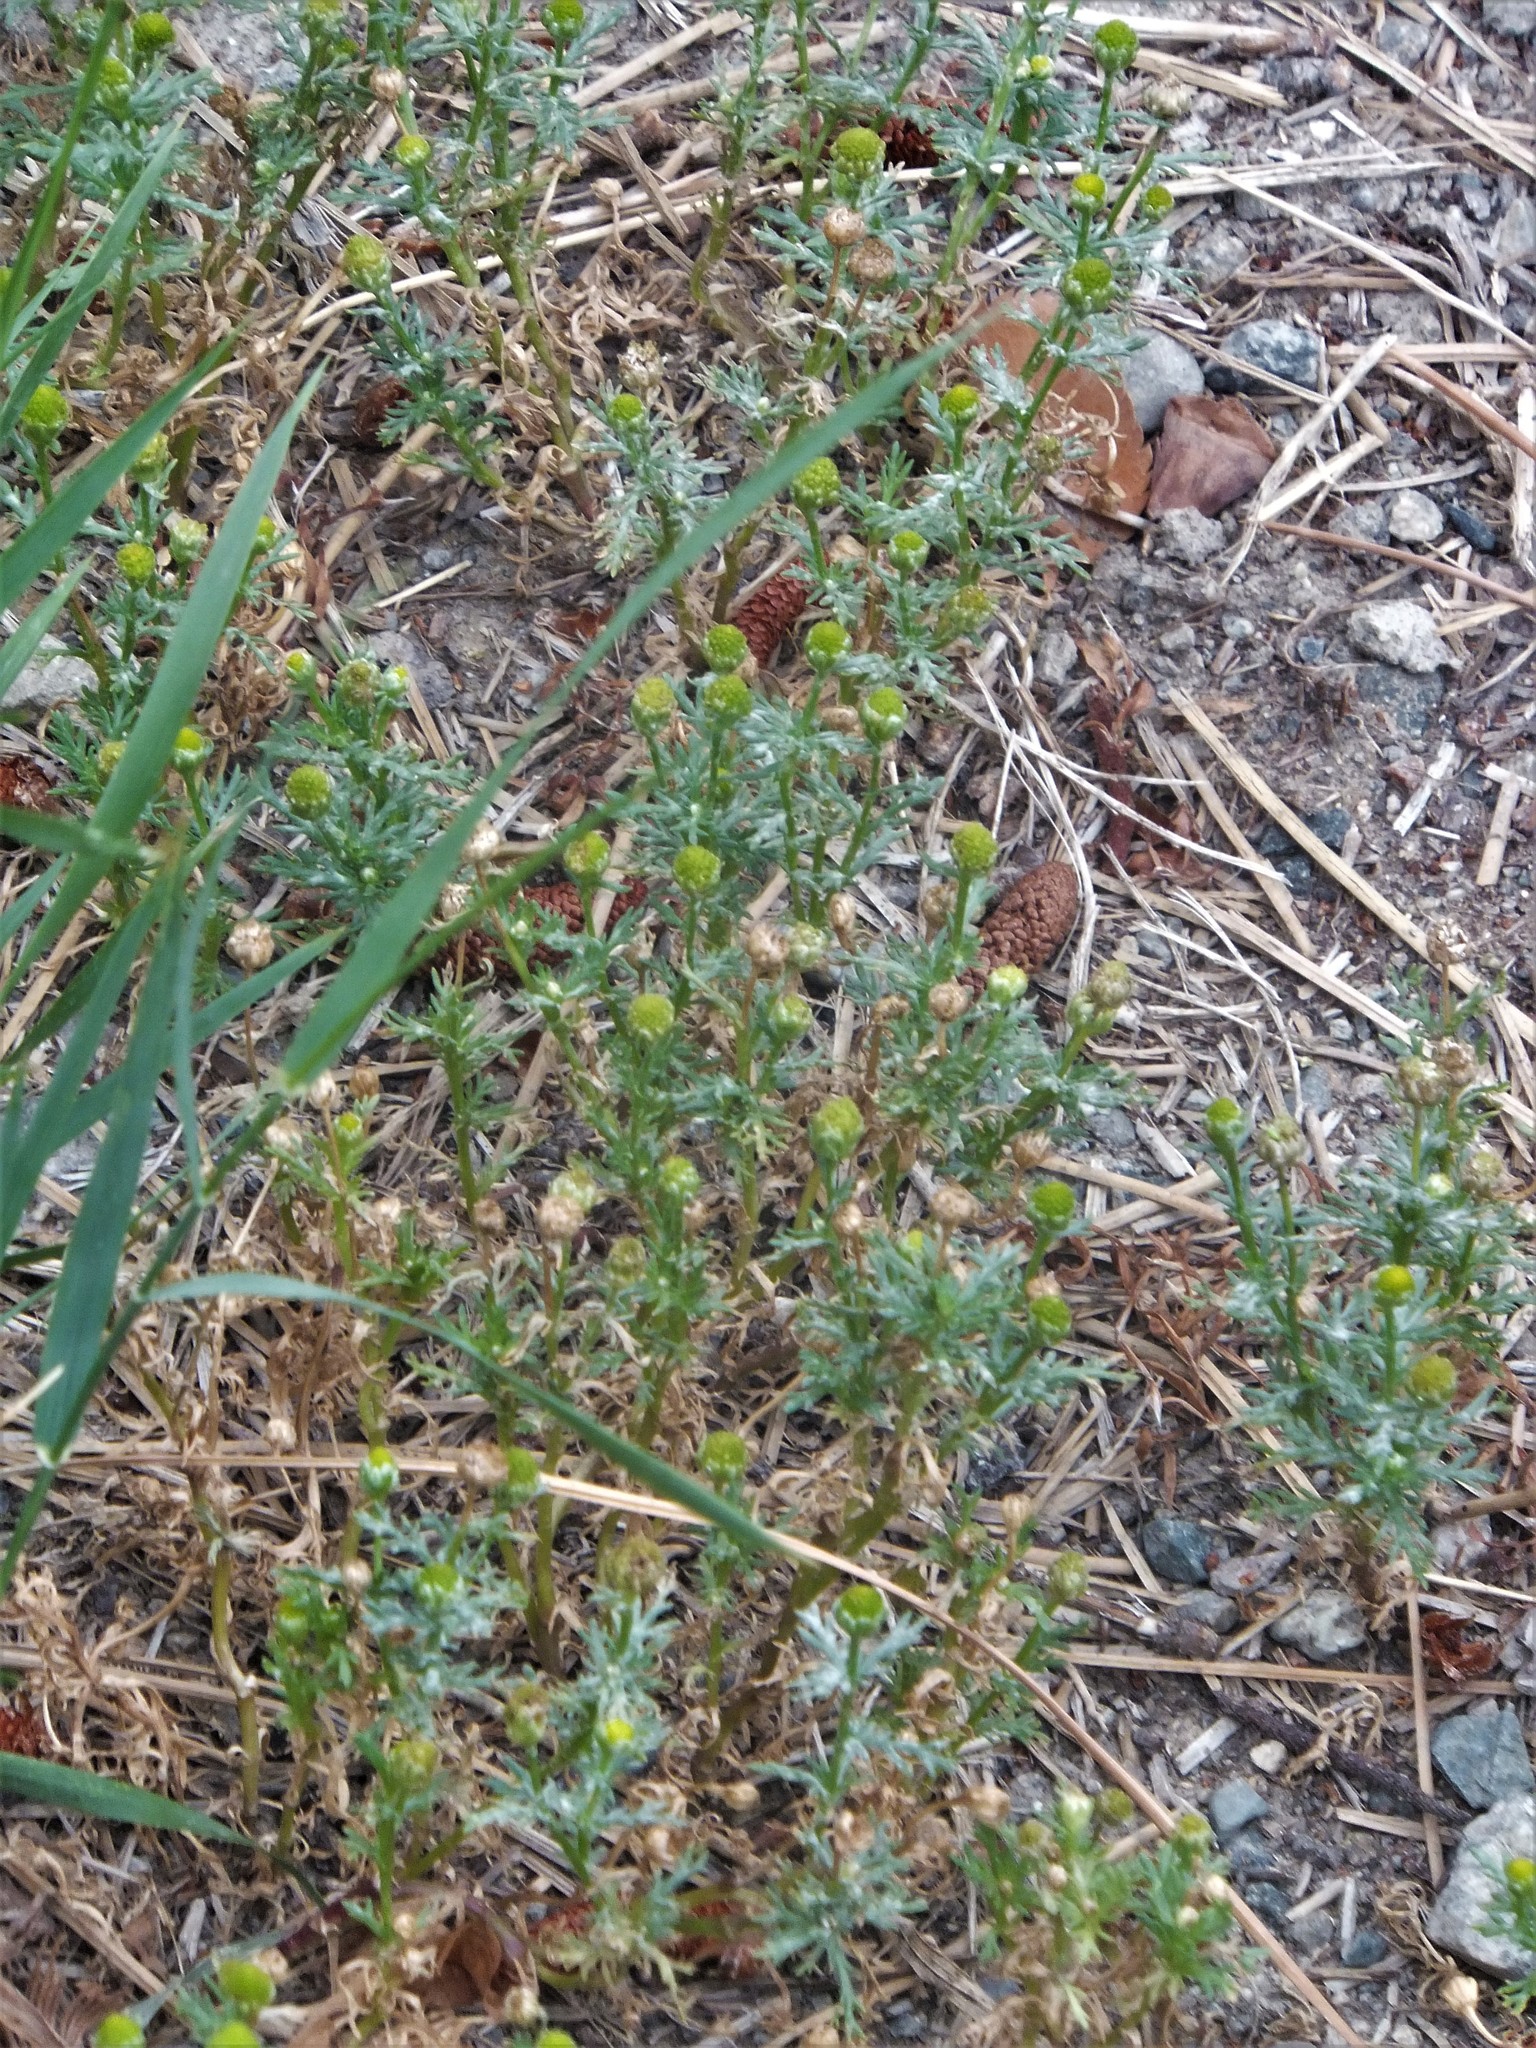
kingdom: Plantae
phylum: Tracheophyta
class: Magnoliopsida
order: Asterales
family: Asteraceae
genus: Matricaria
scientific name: Matricaria discoidea
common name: Disc mayweed
